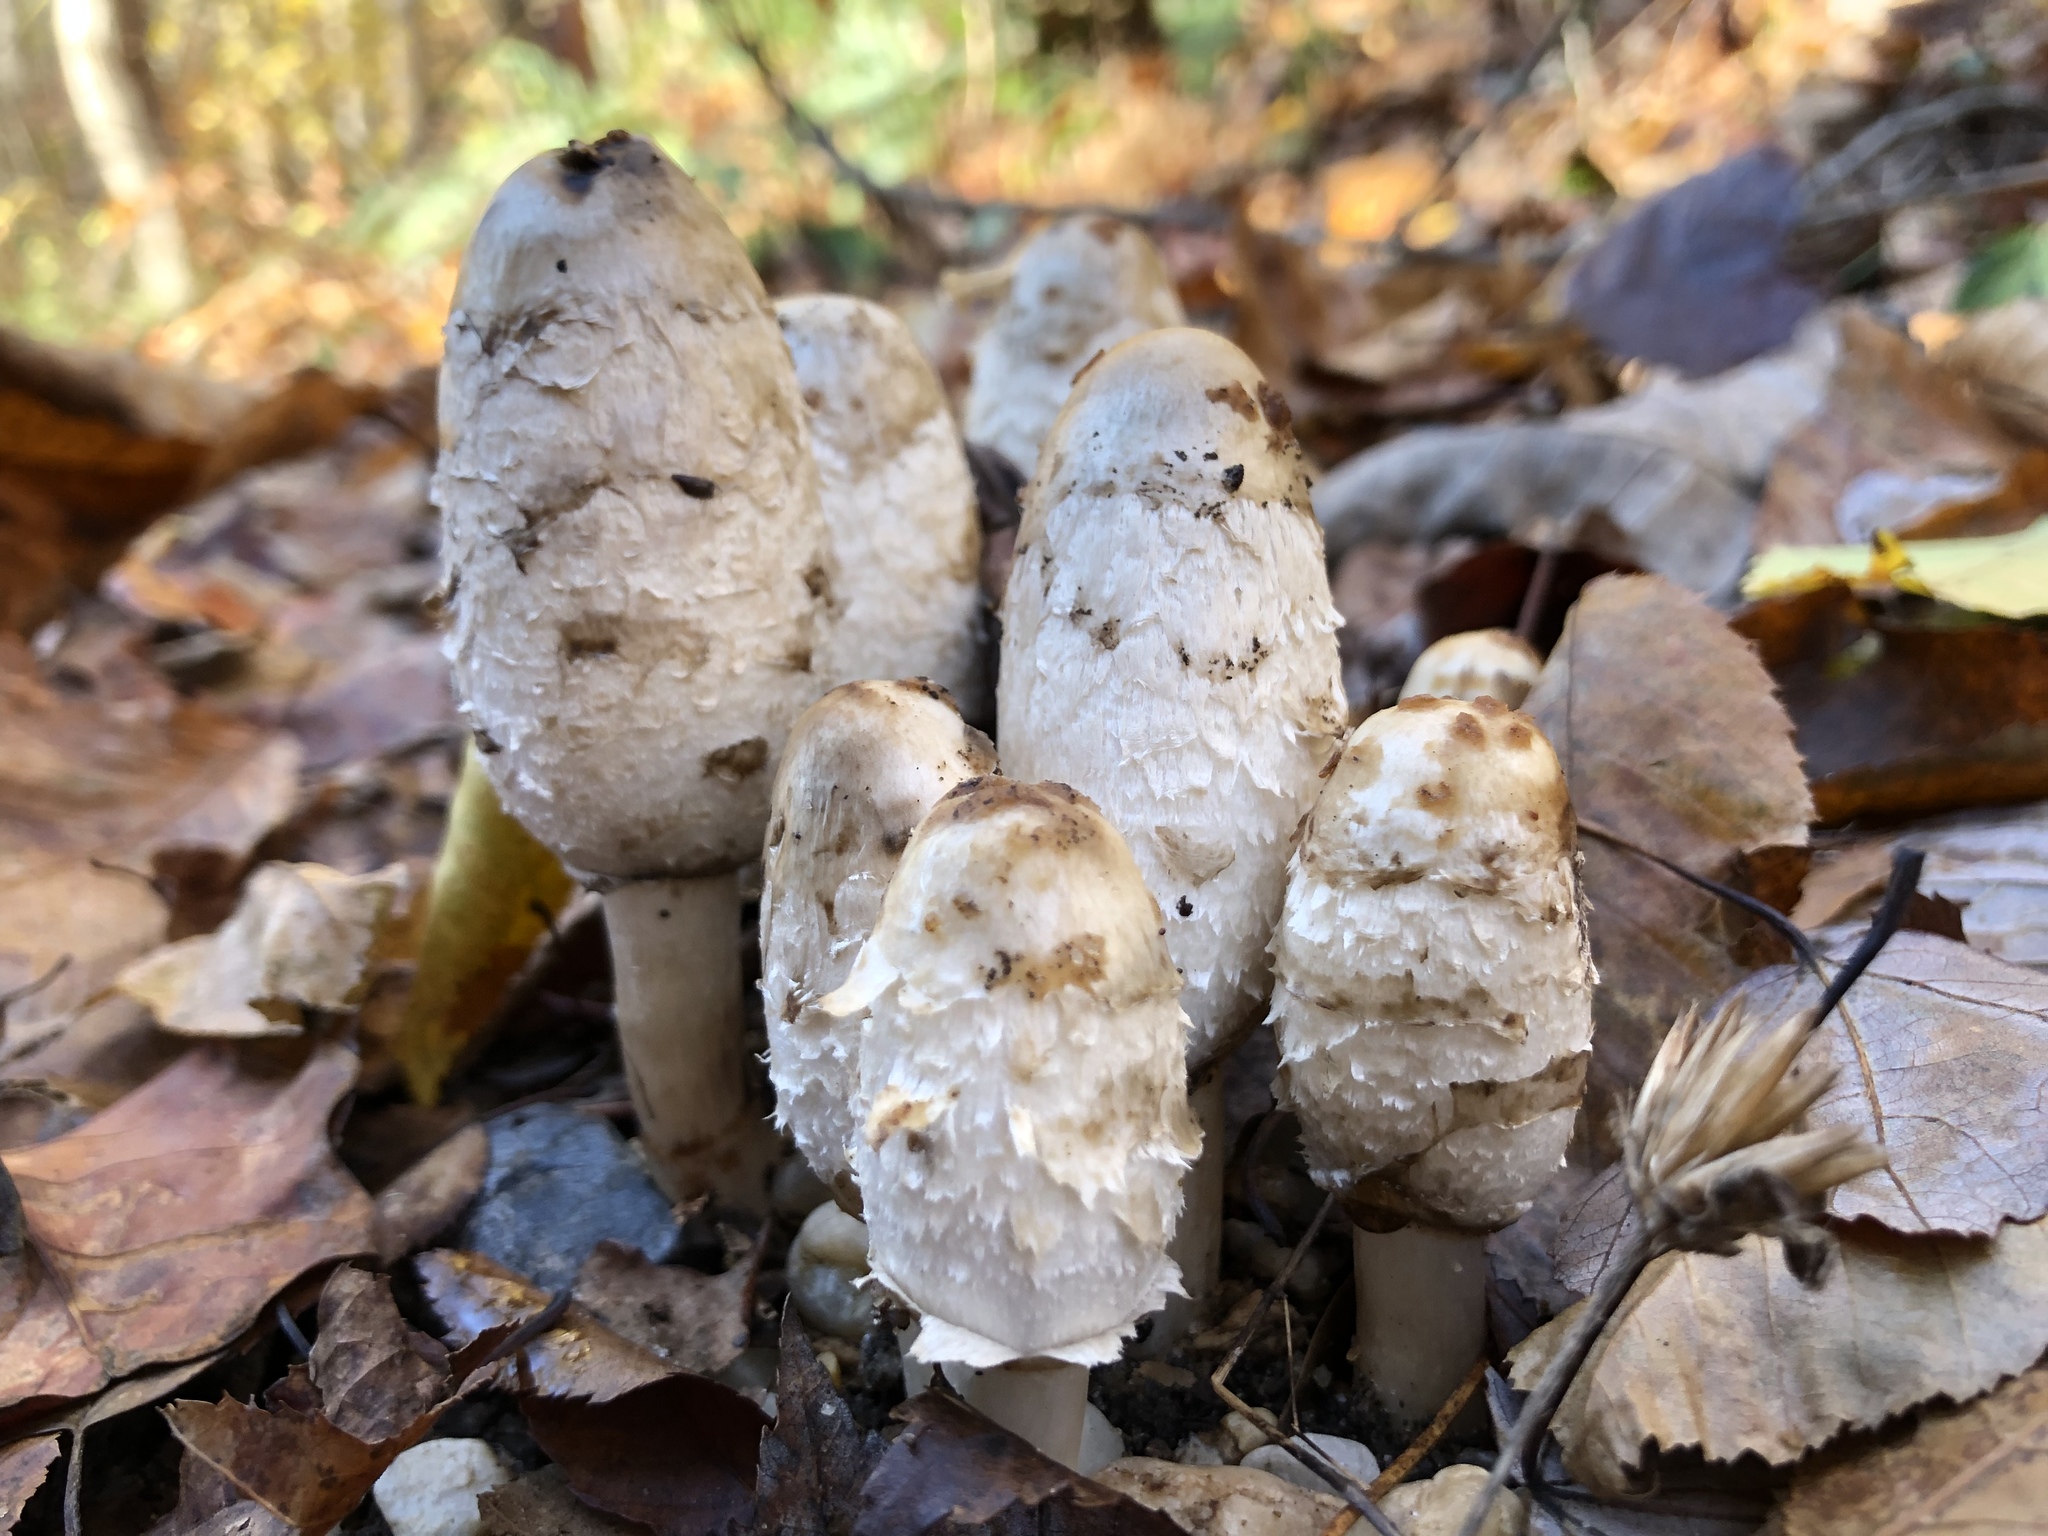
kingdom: Fungi
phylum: Basidiomycota
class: Agaricomycetes
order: Agaricales
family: Agaricaceae
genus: Coprinus
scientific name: Coprinus comatus
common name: Lawyer's wig
